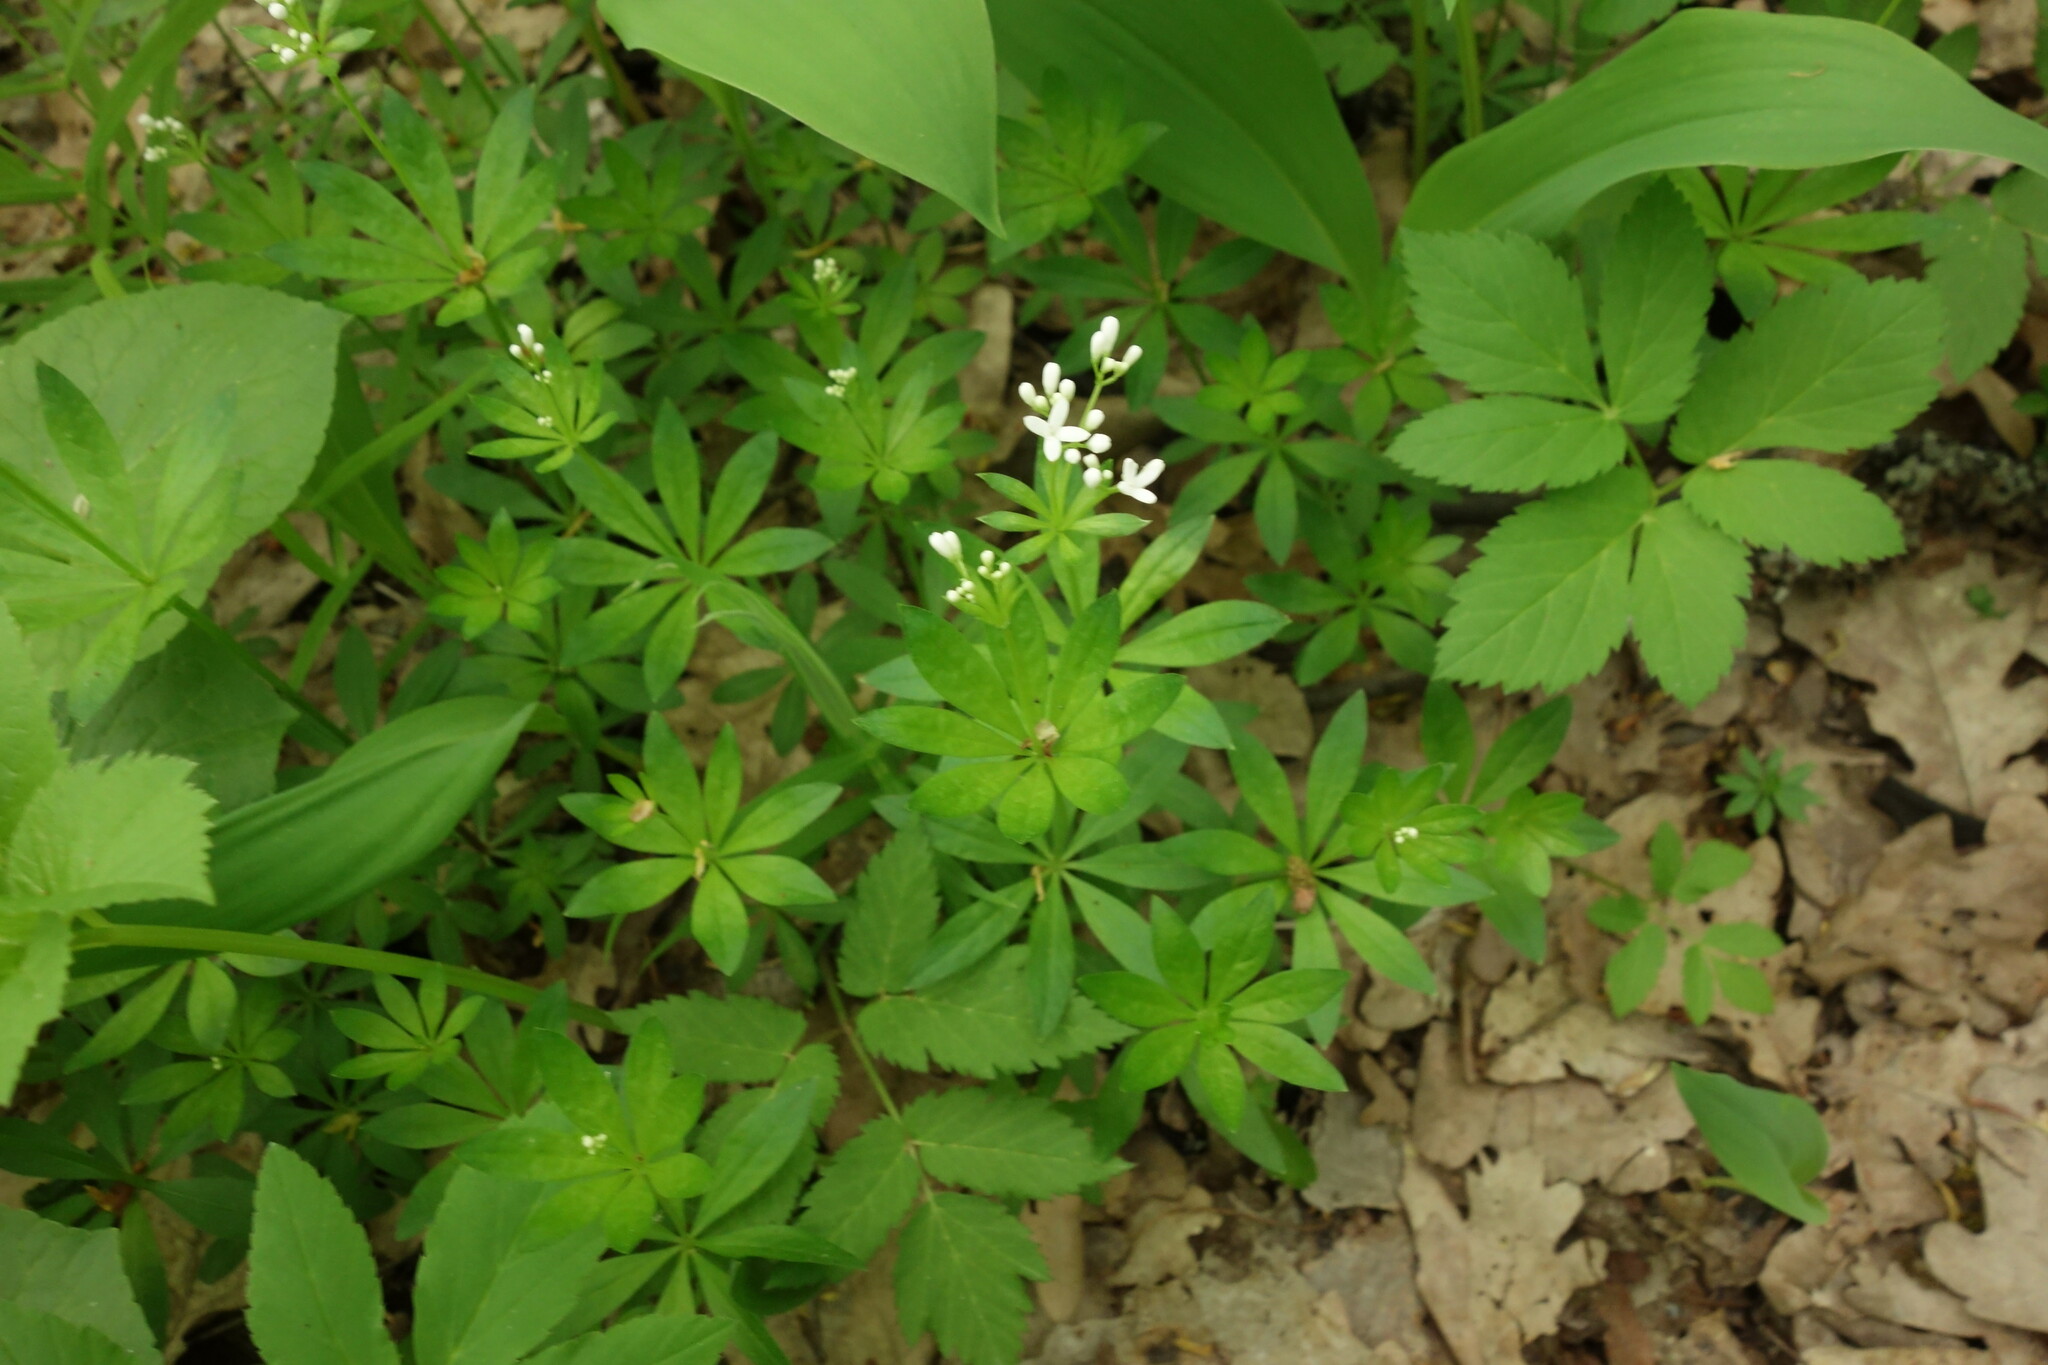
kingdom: Plantae
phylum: Tracheophyta
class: Magnoliopsida
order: Gentianales
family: Rubiaceae
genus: Galium
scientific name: Galium odoratum
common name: Sweet woodruff
